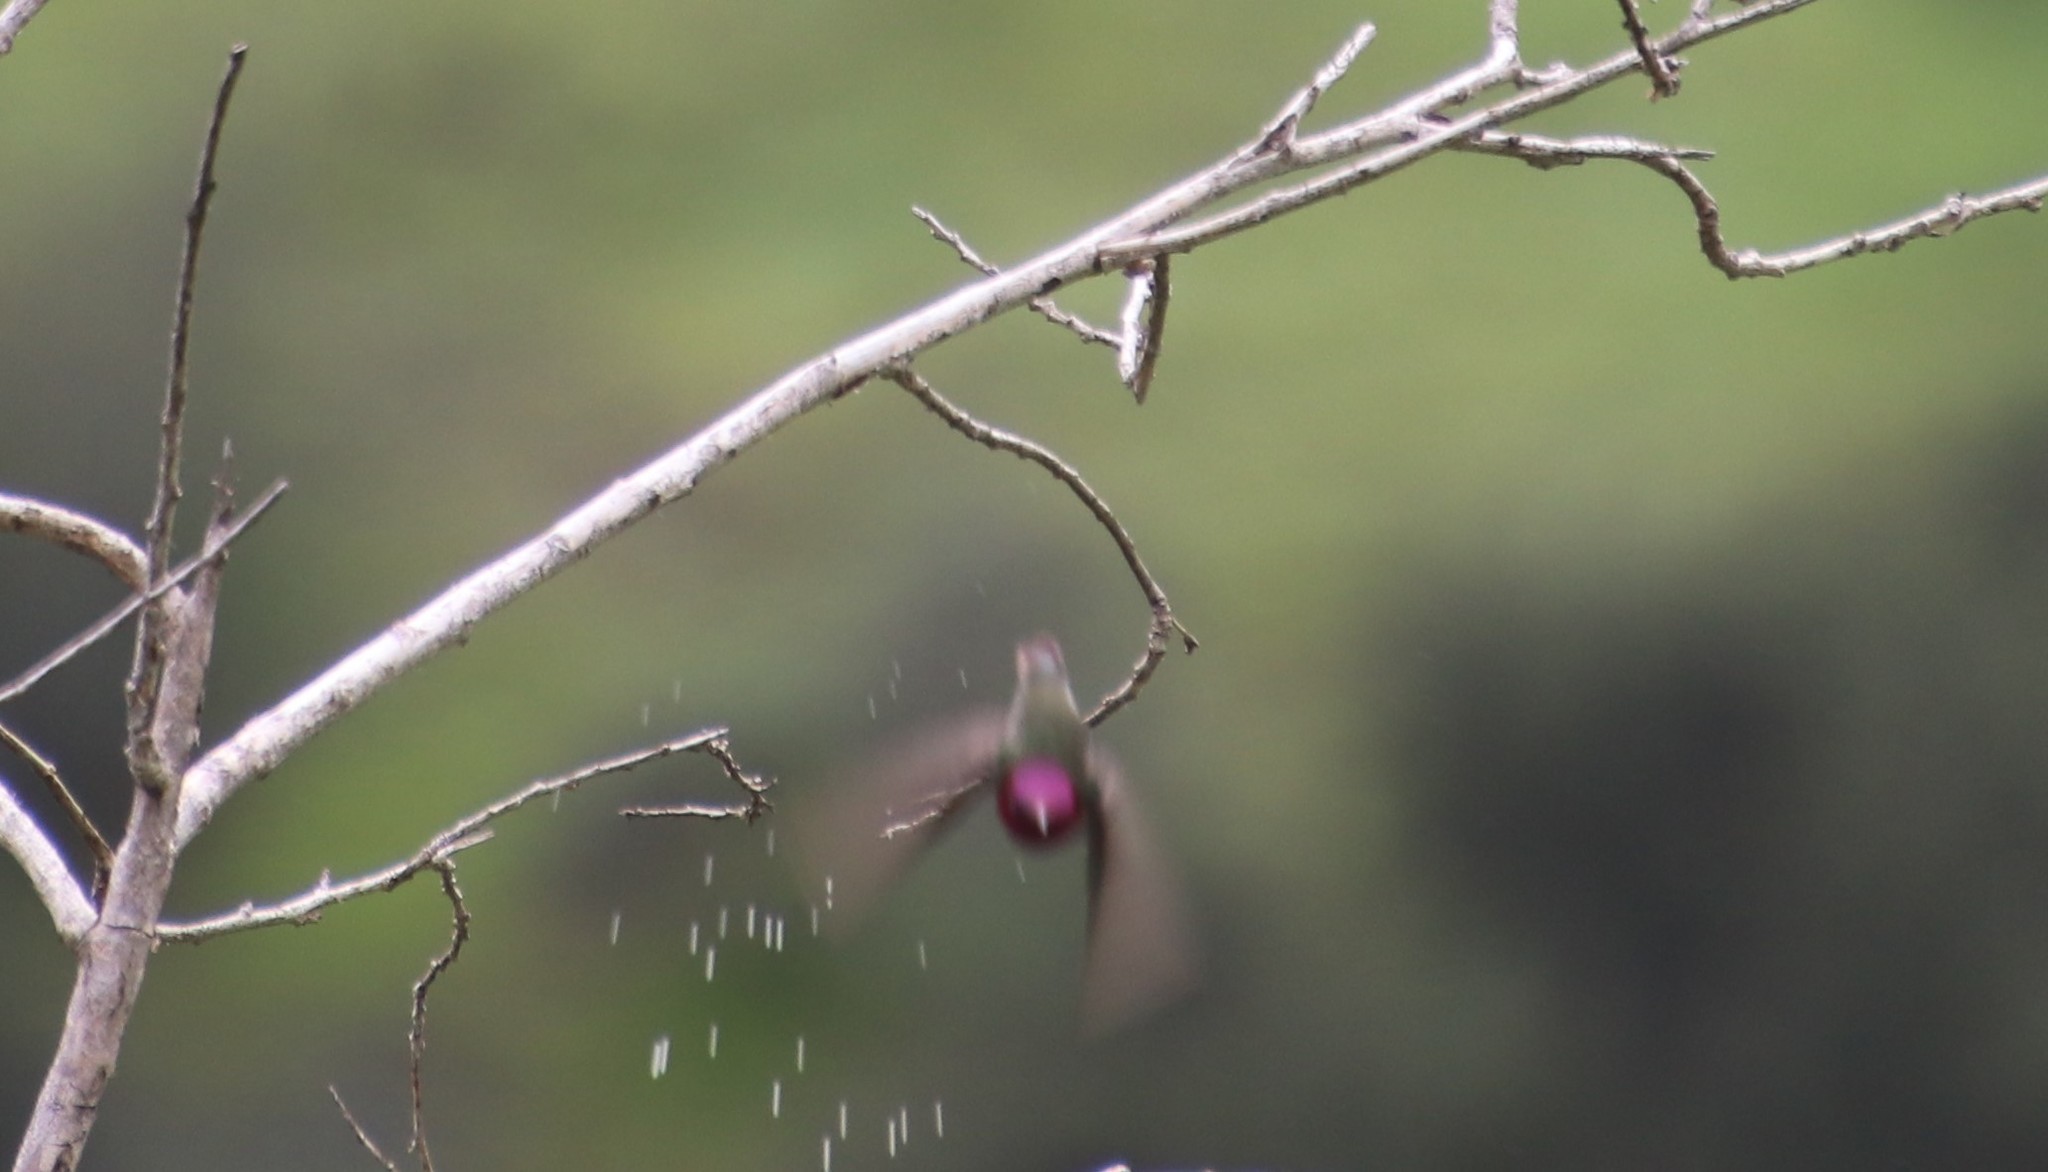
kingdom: Animalia
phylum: Chordata
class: Aves
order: Apodiformes
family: Trochilidae
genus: Calypte
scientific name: Calypte anna
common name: Anna's hummingbird
